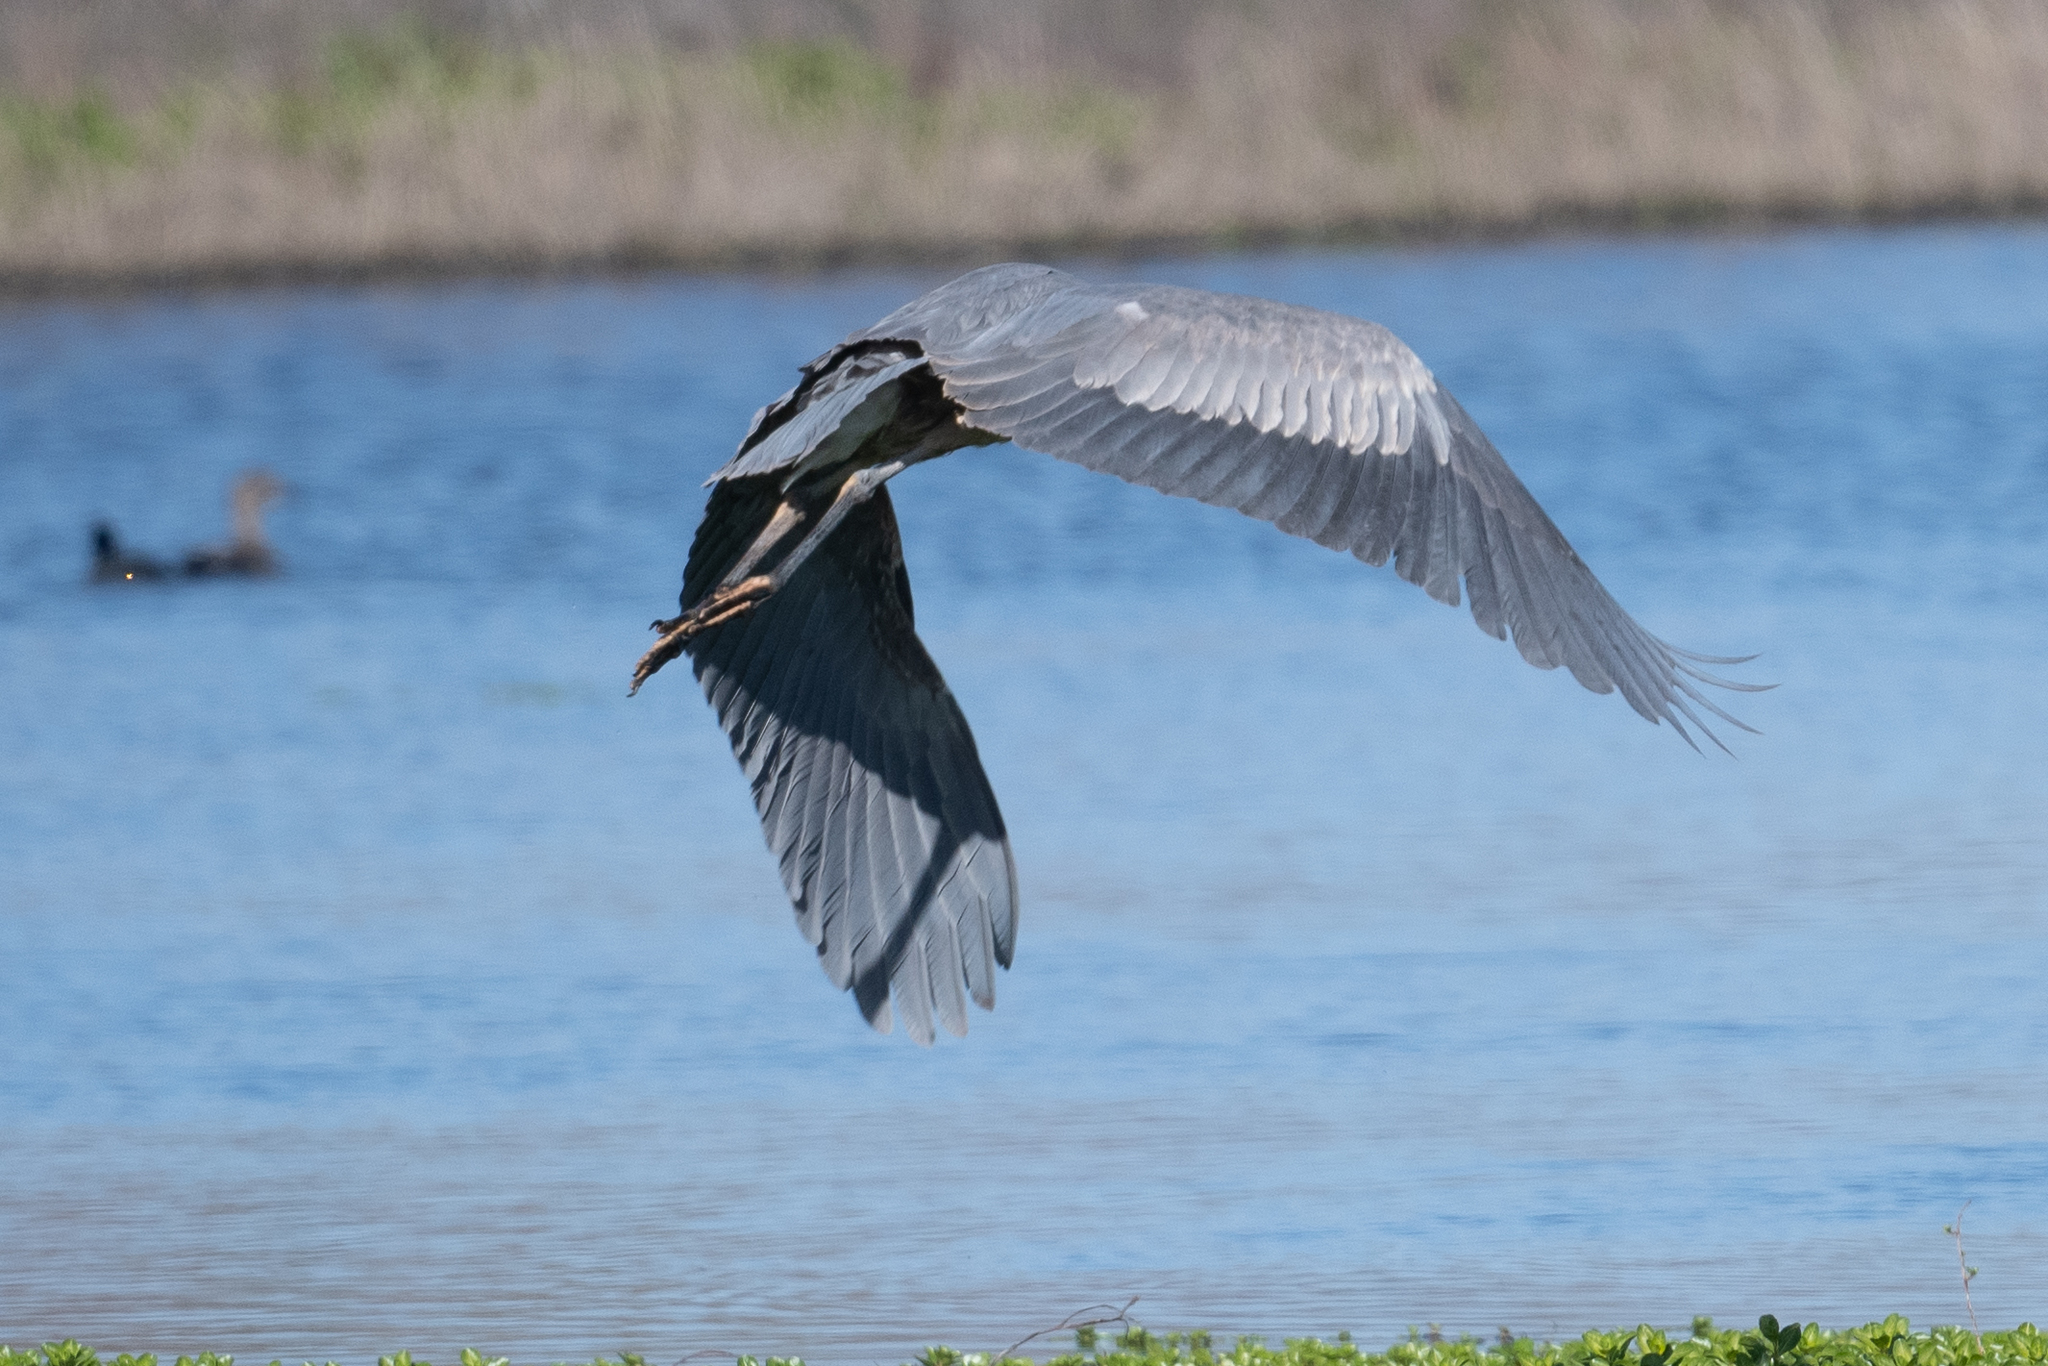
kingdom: Animalia
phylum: Chordata
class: Aves
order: Pelecaniformes
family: Ardeidae
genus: Ardea
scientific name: Ardea herodias
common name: Great blue heron
